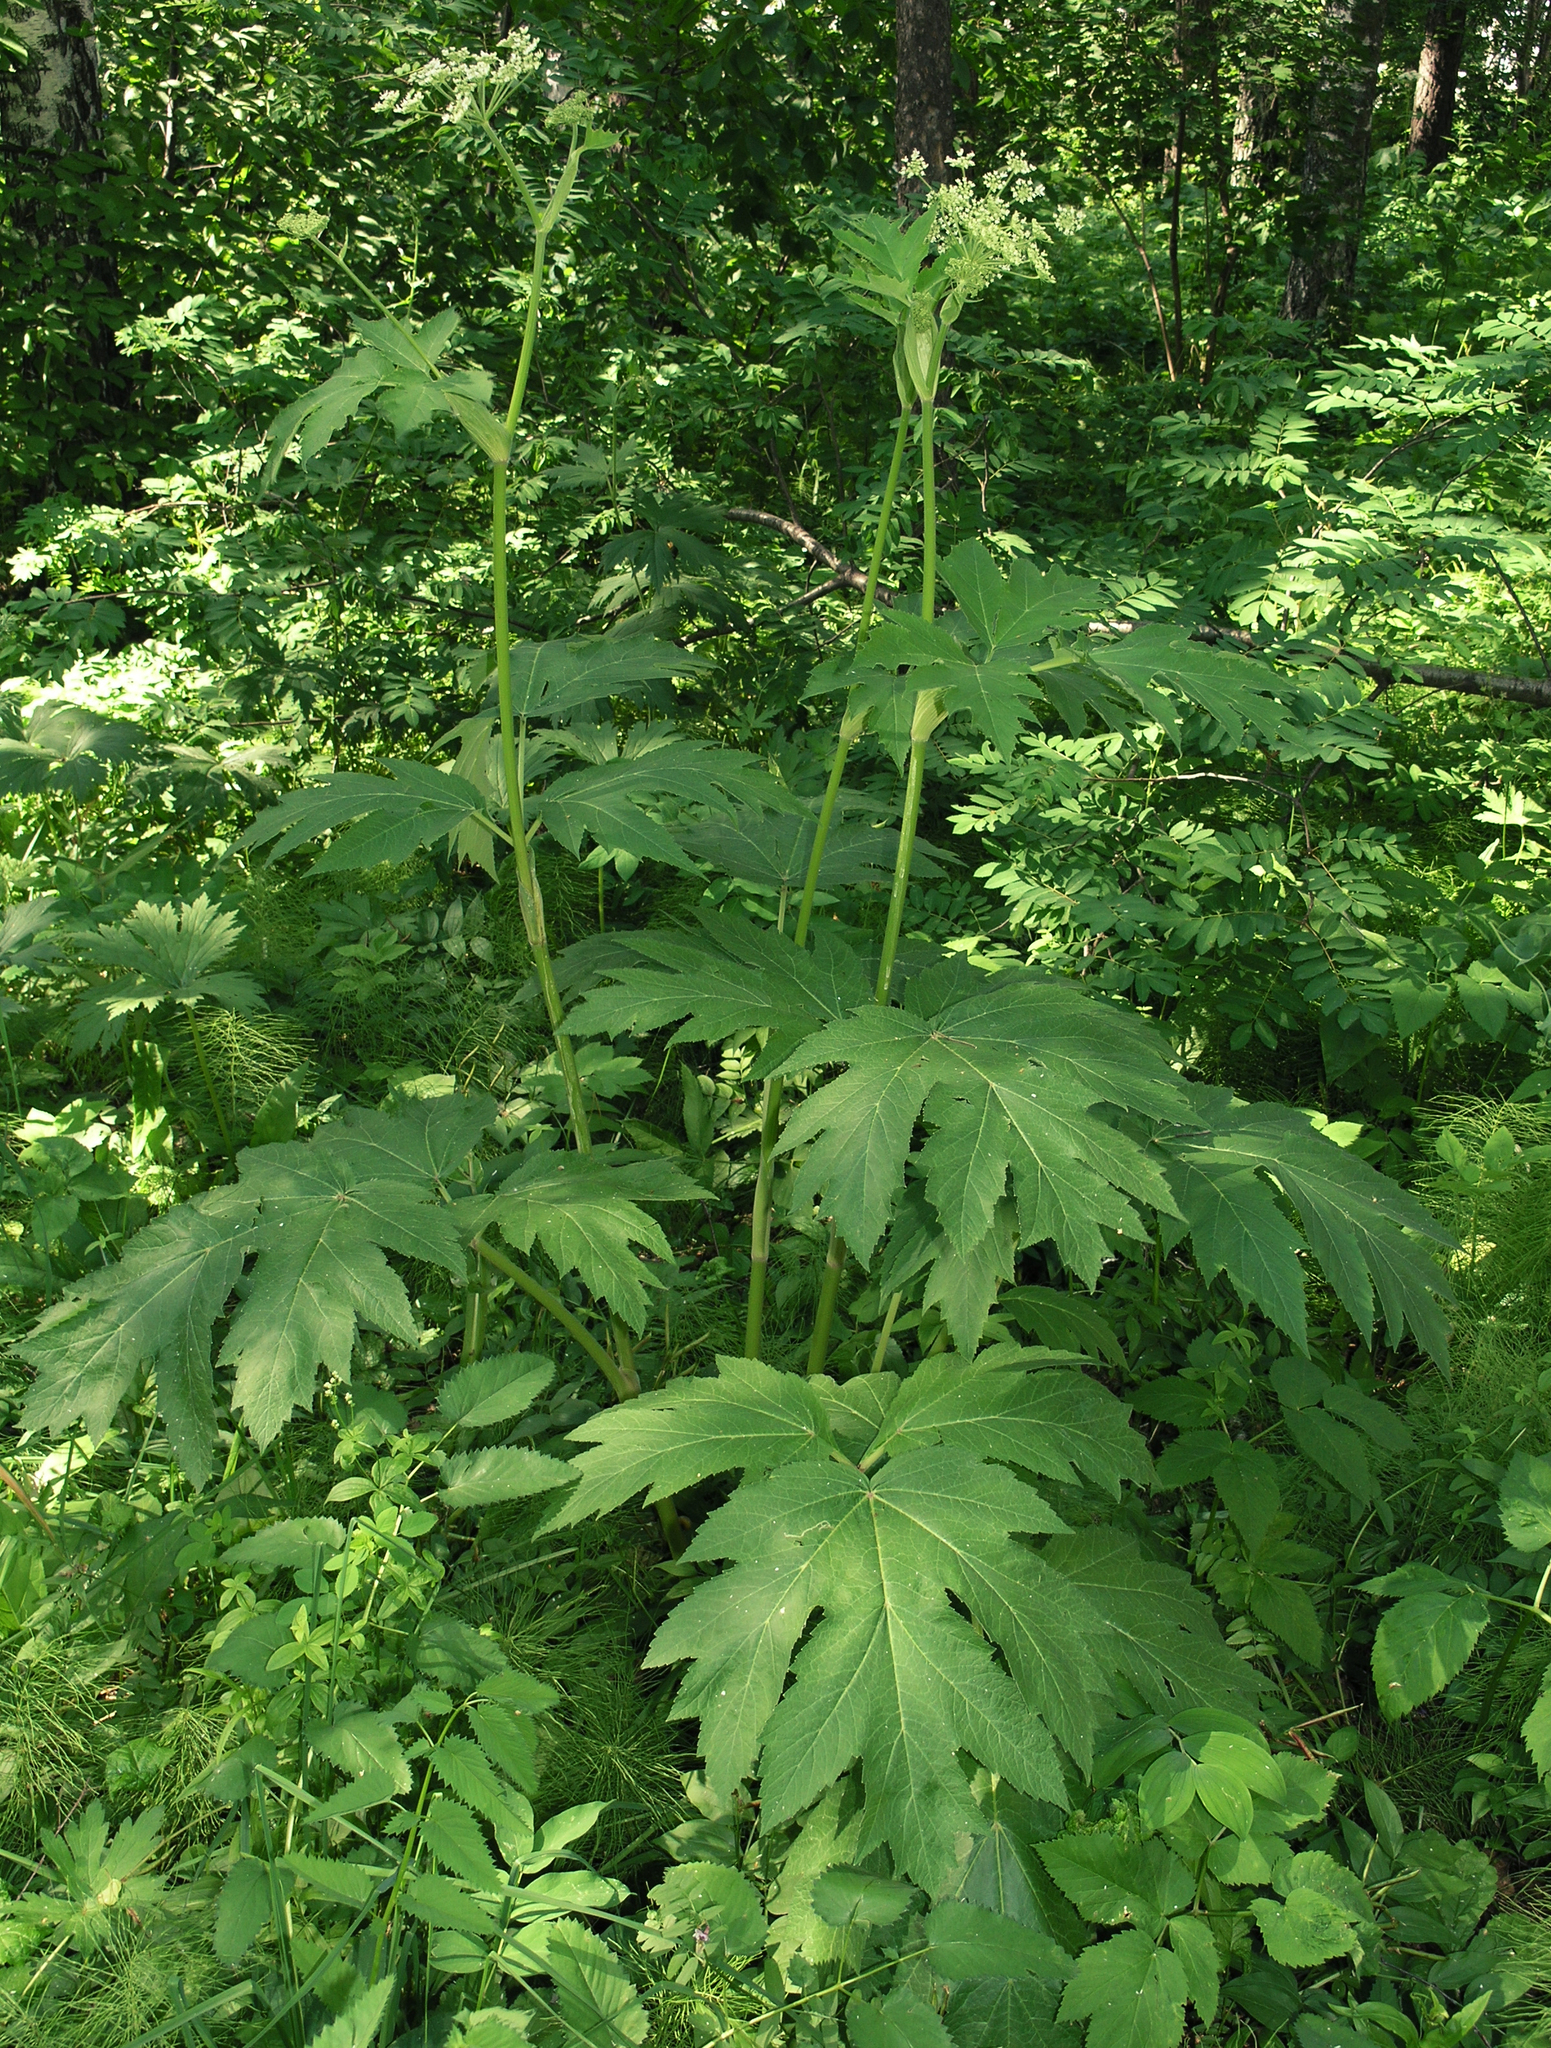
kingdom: Plantae
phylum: Tracheophyta
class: Magnoliopsida
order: Apiales
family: Apiaceae
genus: Heracleum
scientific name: Heracleum dissectum
